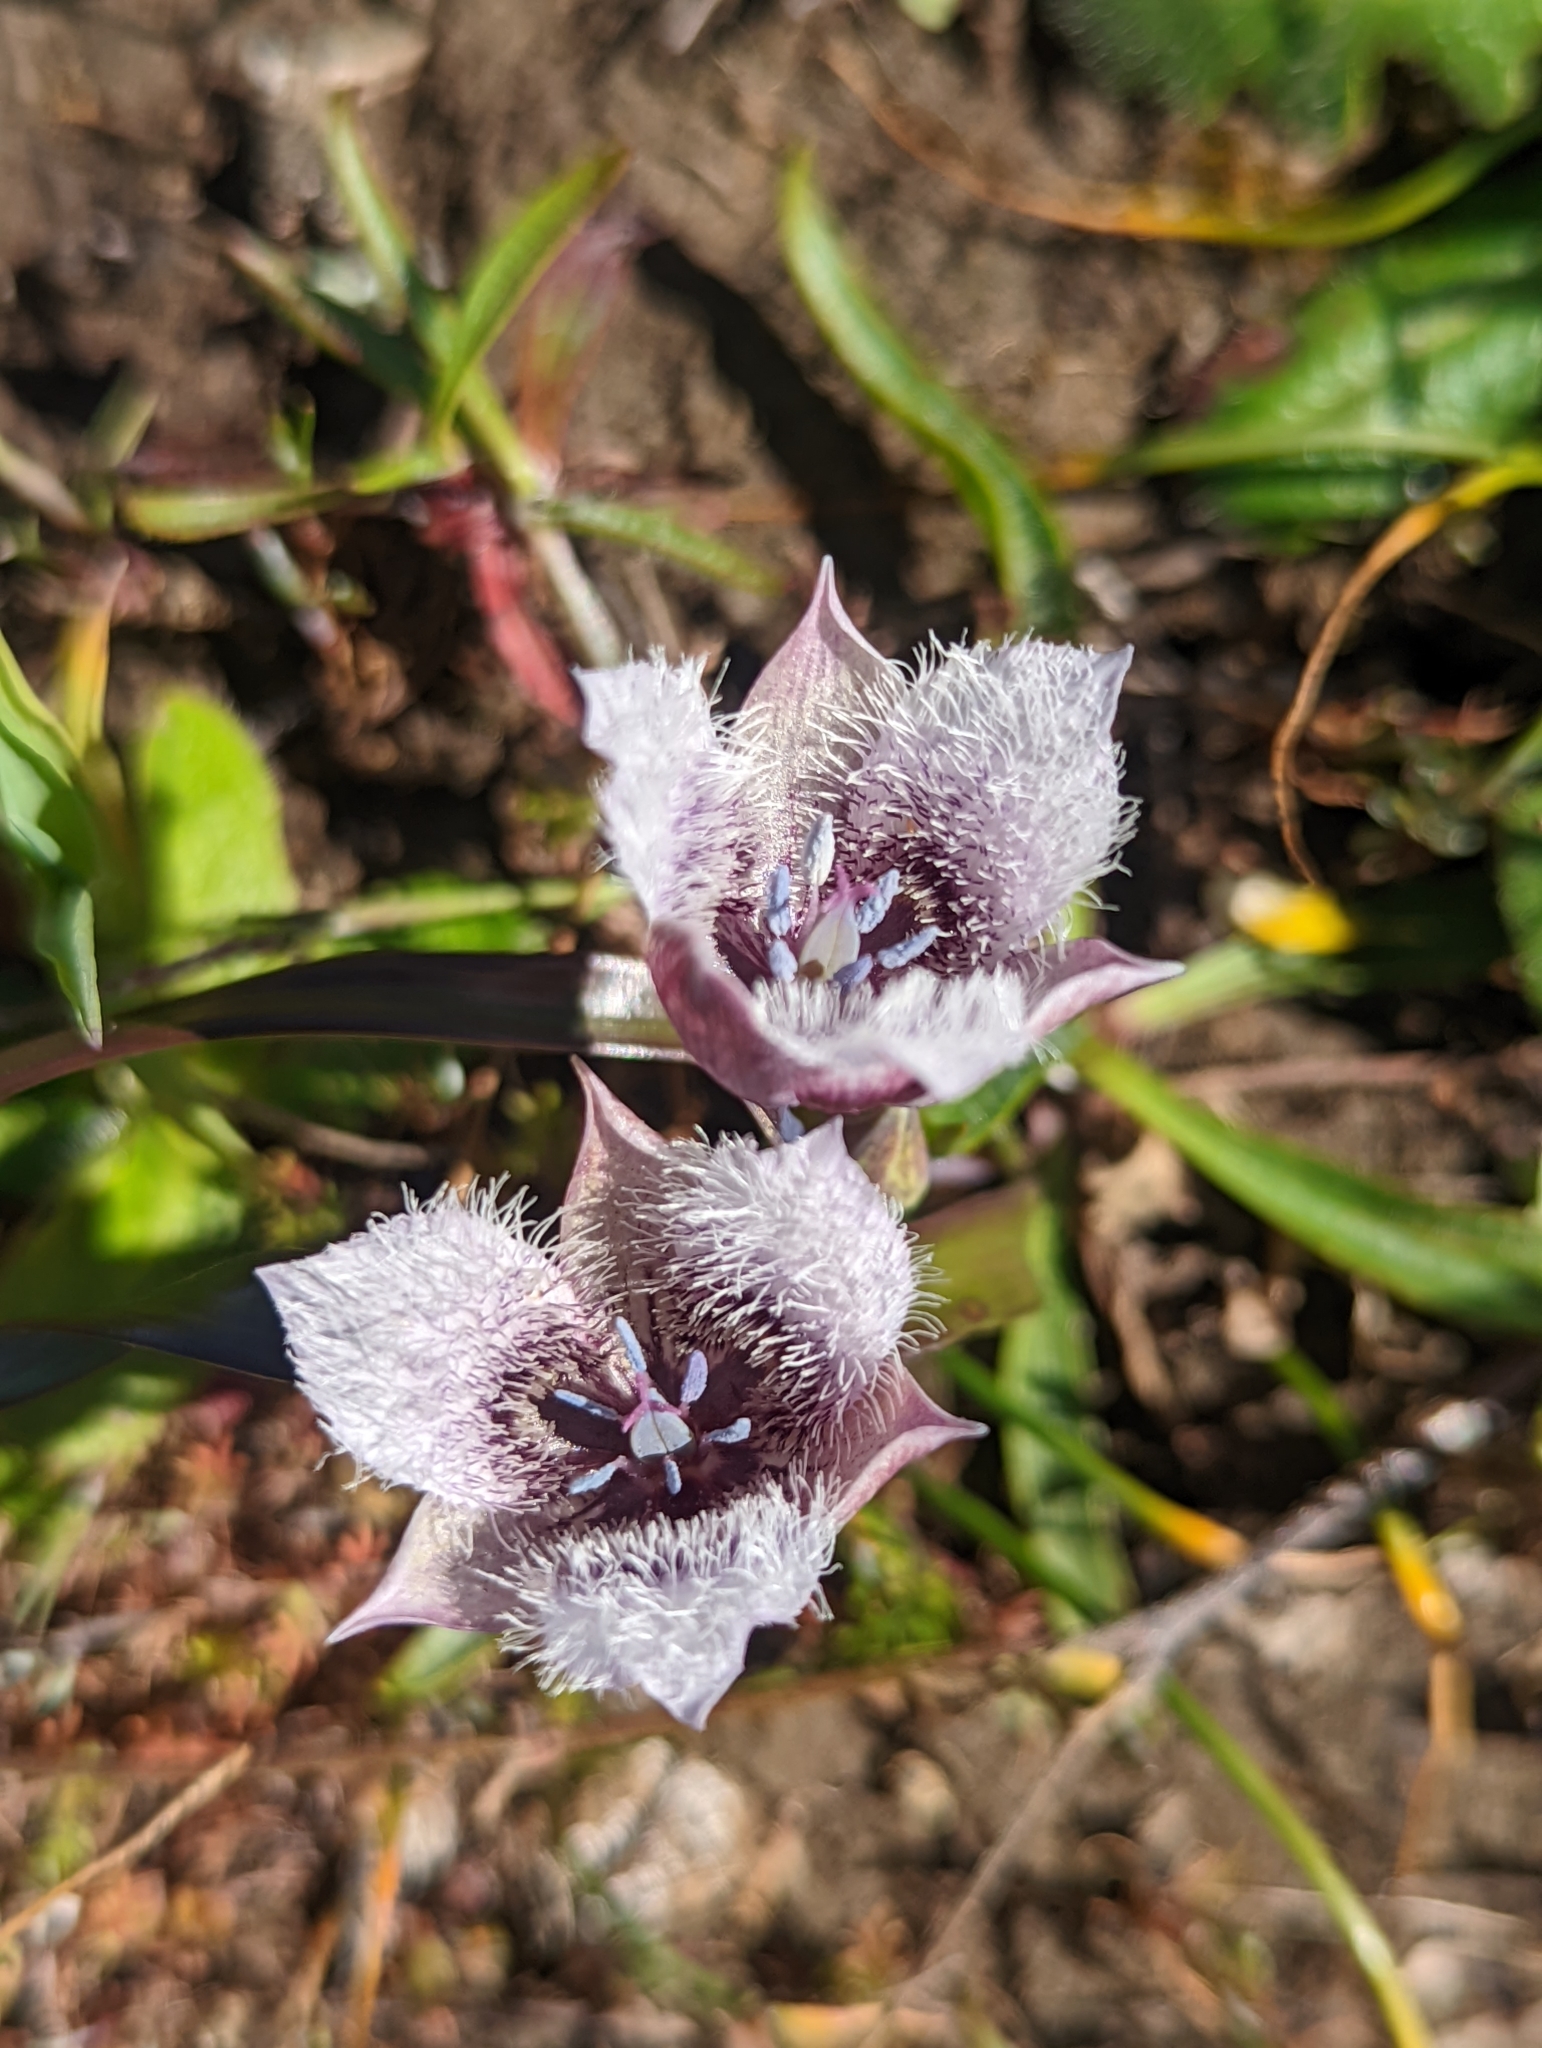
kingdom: Plantae
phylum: Tracheophyta
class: Liliopsida
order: Liliales
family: Liliaceae
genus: Calochortus
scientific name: Calochortus tolmiei
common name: Pussy-ears
